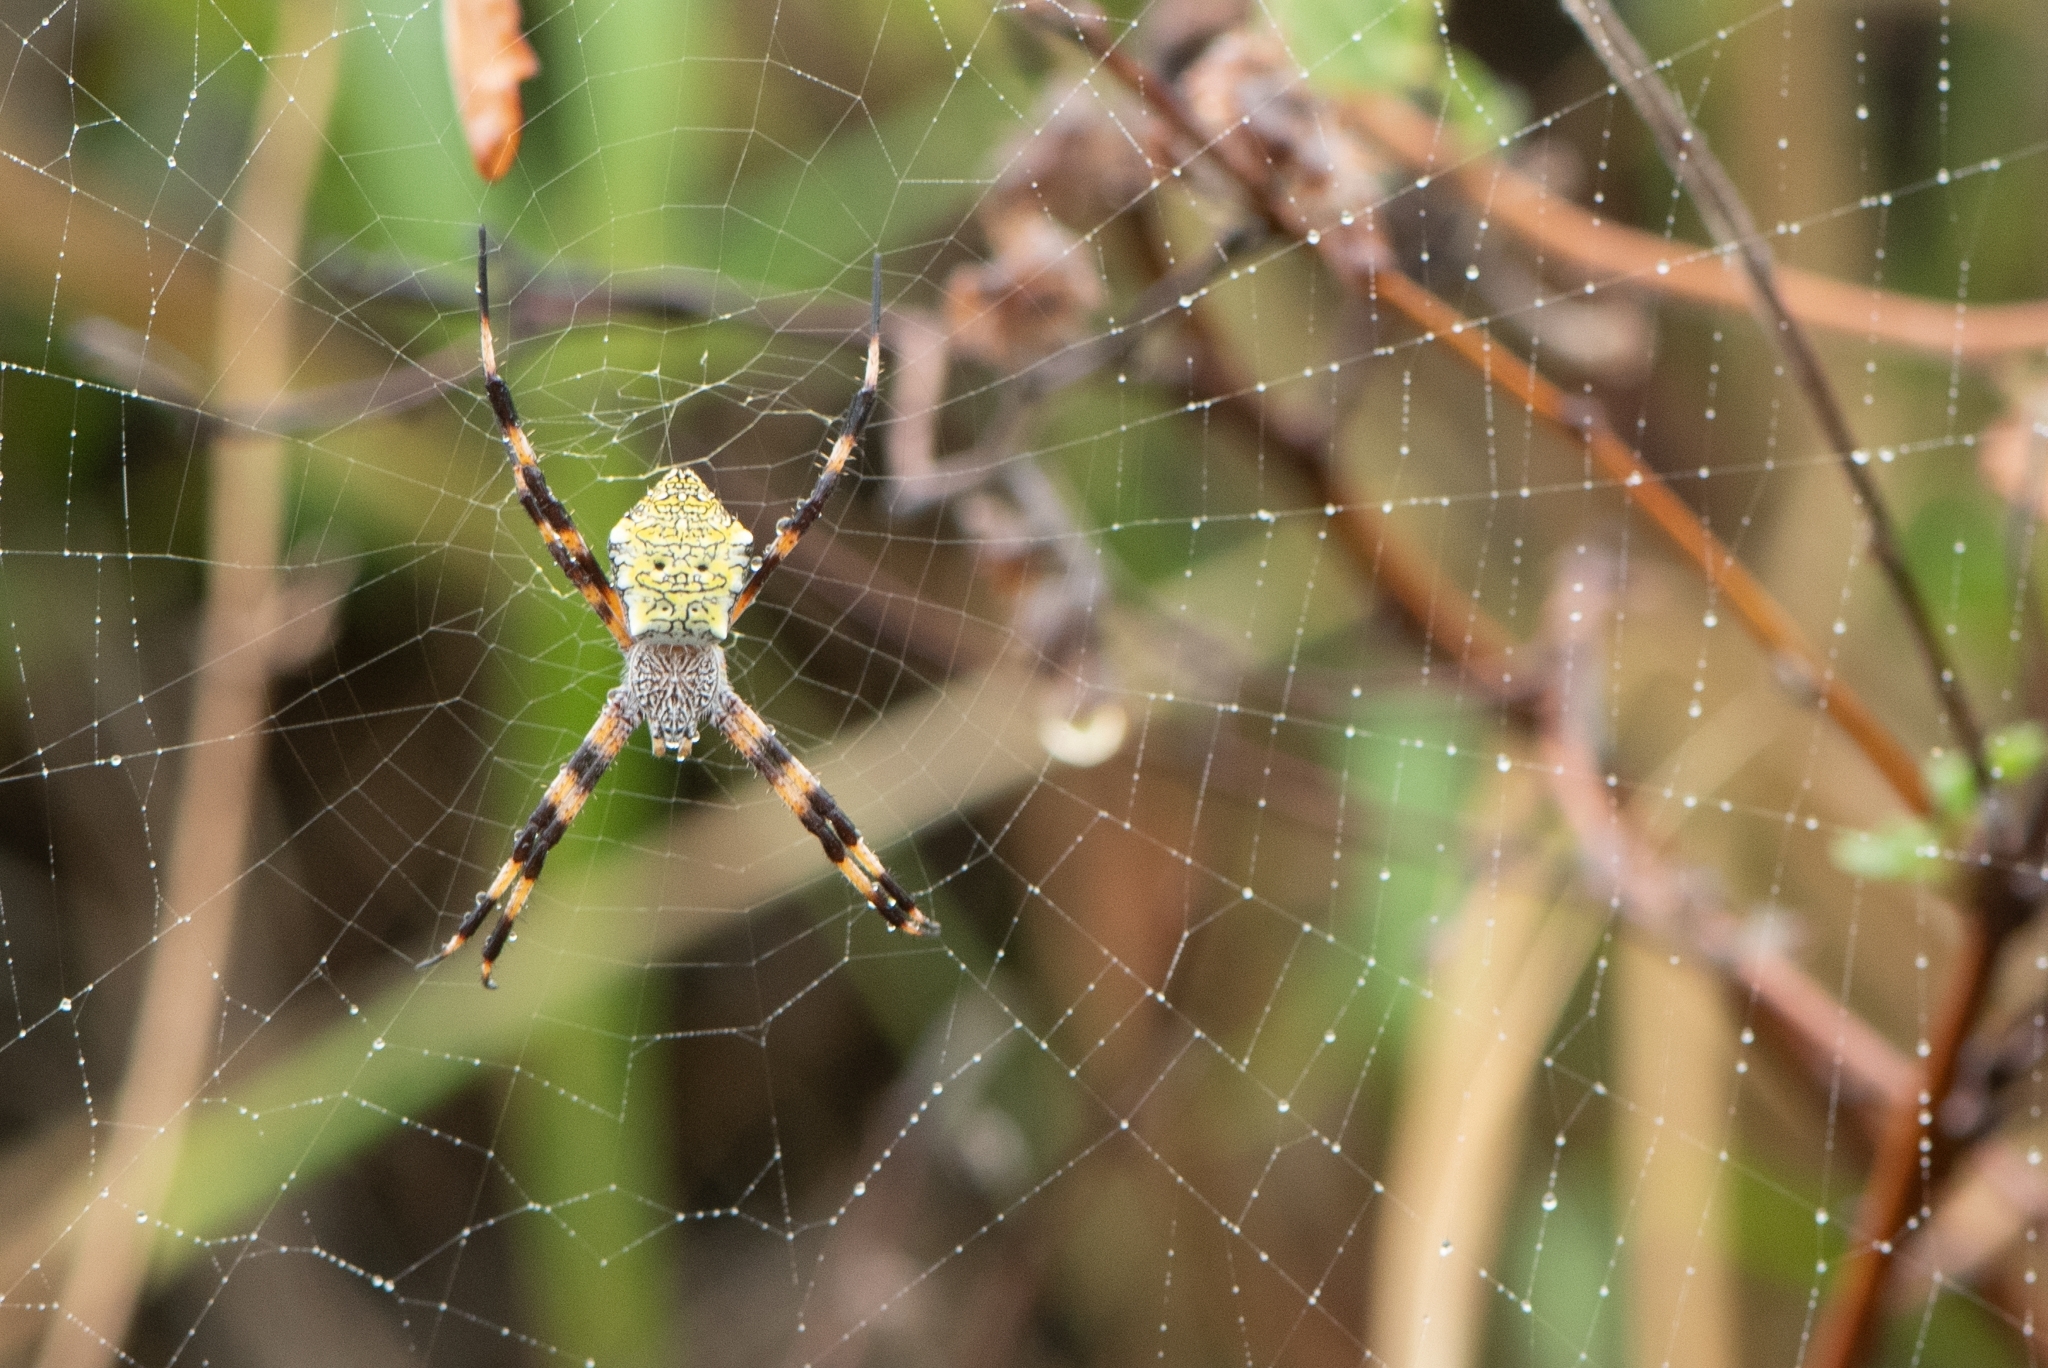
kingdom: Animalia
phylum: Arthropoda
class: Arachnida
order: Araneae
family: Araneidae
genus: Argiope
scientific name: Argiope appensa
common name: Garden spider
